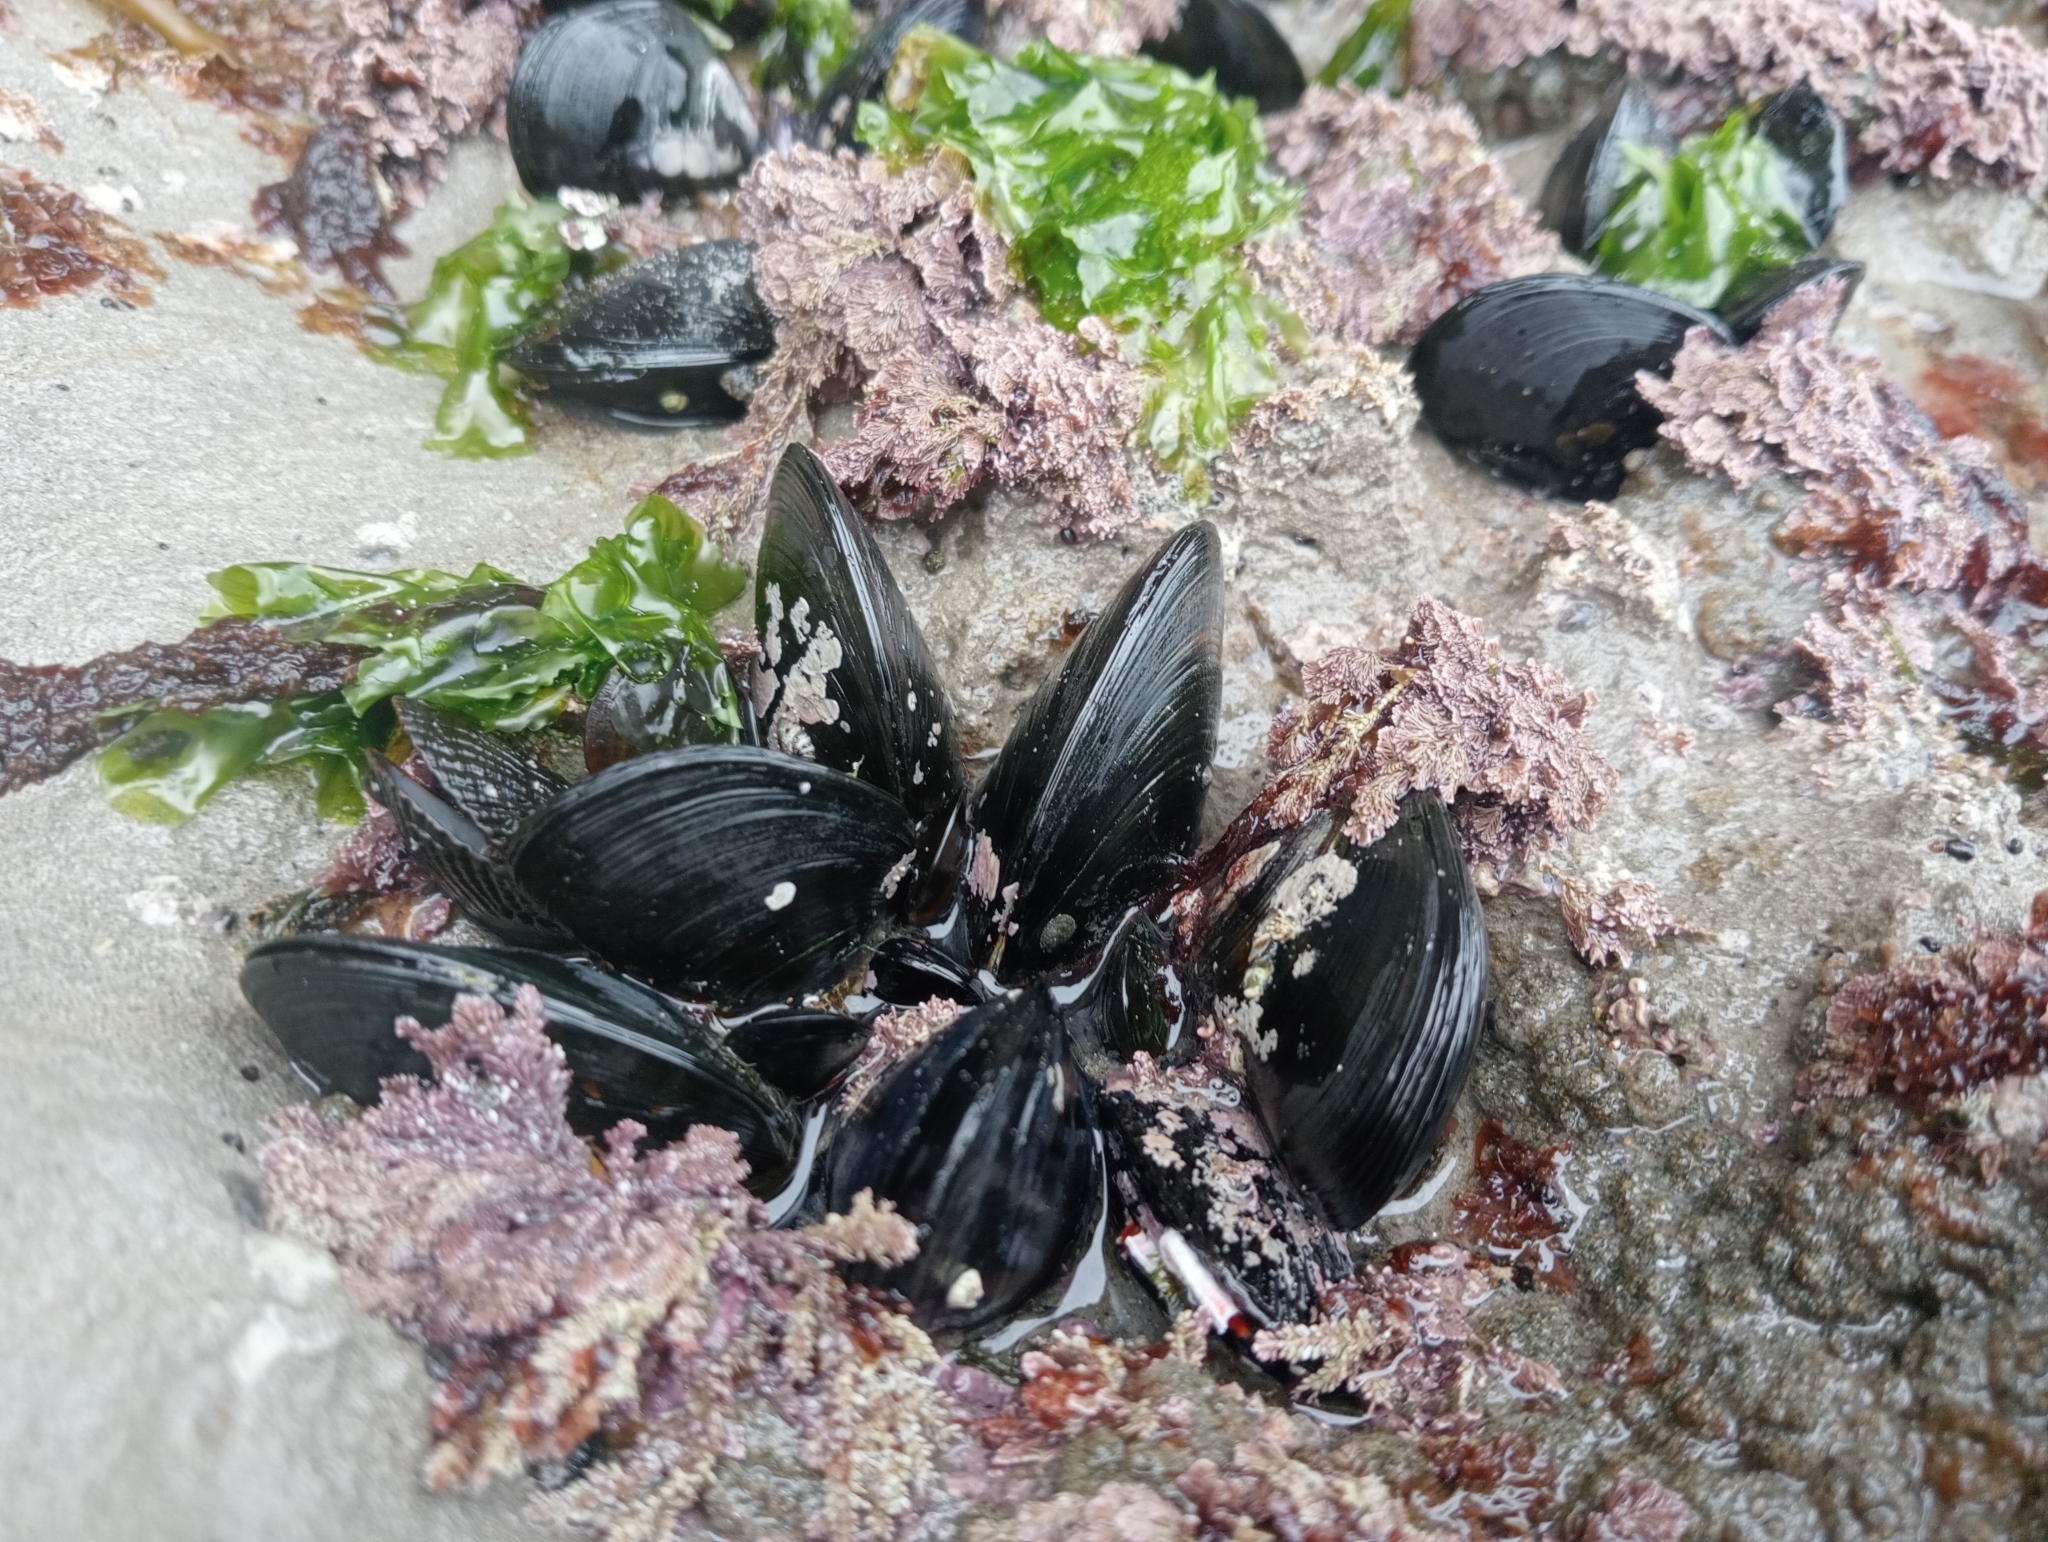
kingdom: Animalia
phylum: Mollusca
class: Bivalvia
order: Mytilida
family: Mytilidae
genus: Perna
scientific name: Perna canaliculus
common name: New zealand greenshelltm
